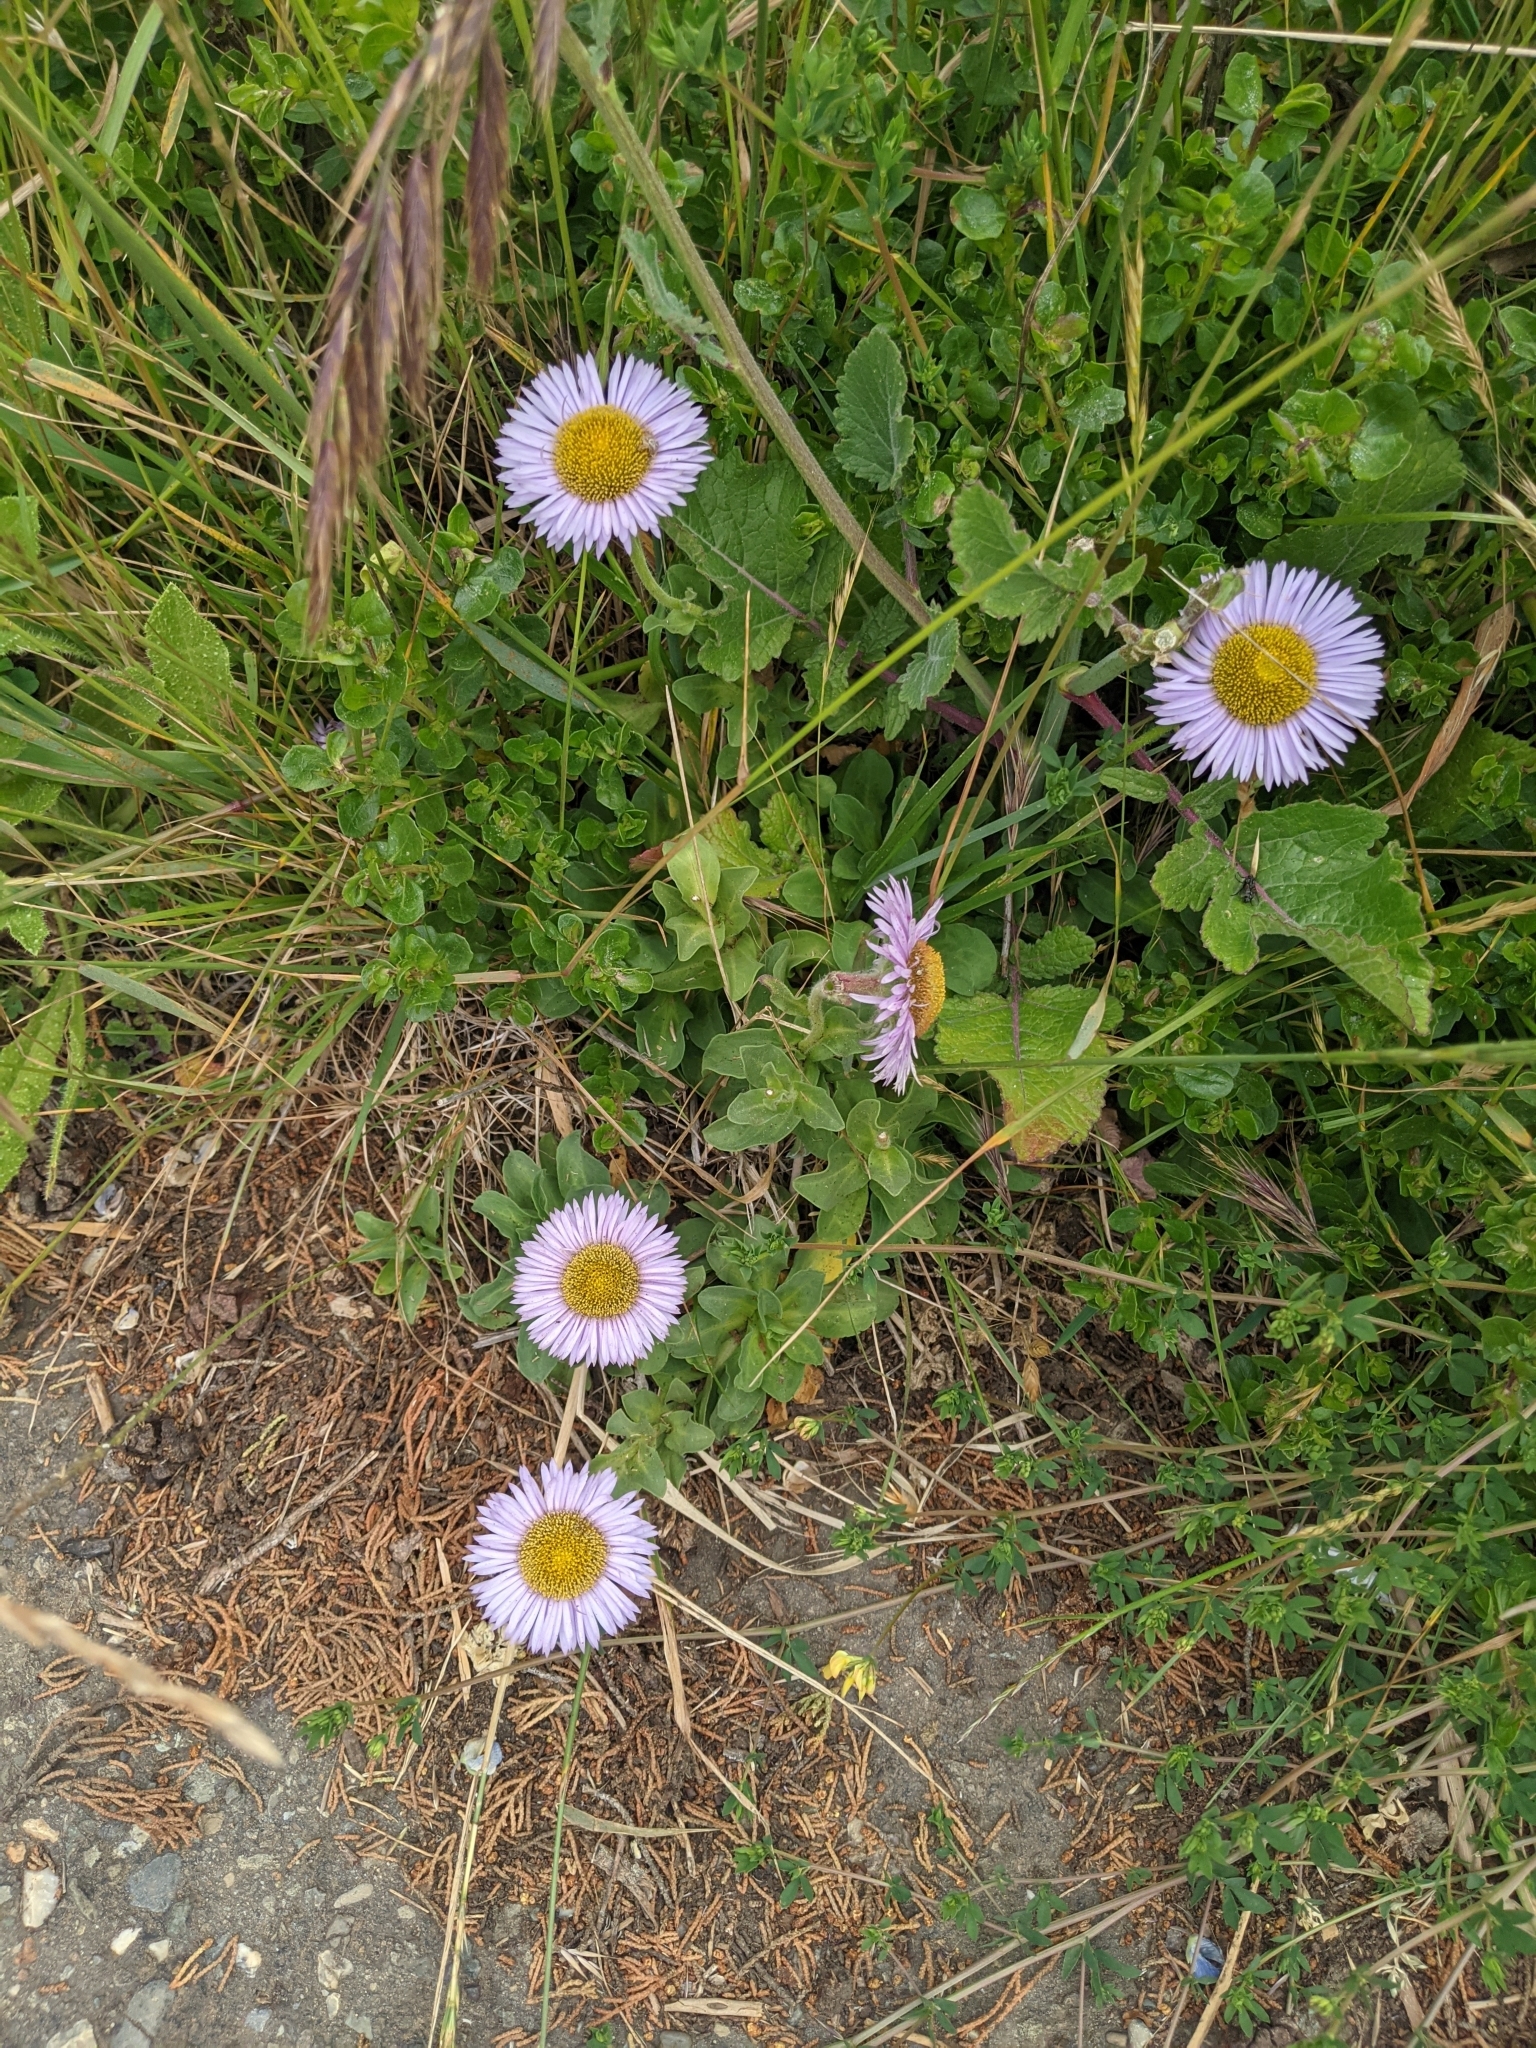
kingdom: Plantae
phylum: Tracheophyta
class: Magnoliopsida
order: Asterales
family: Asteraceae
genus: Erigeron
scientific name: Erigeron glaucus
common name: Seaside daisy
